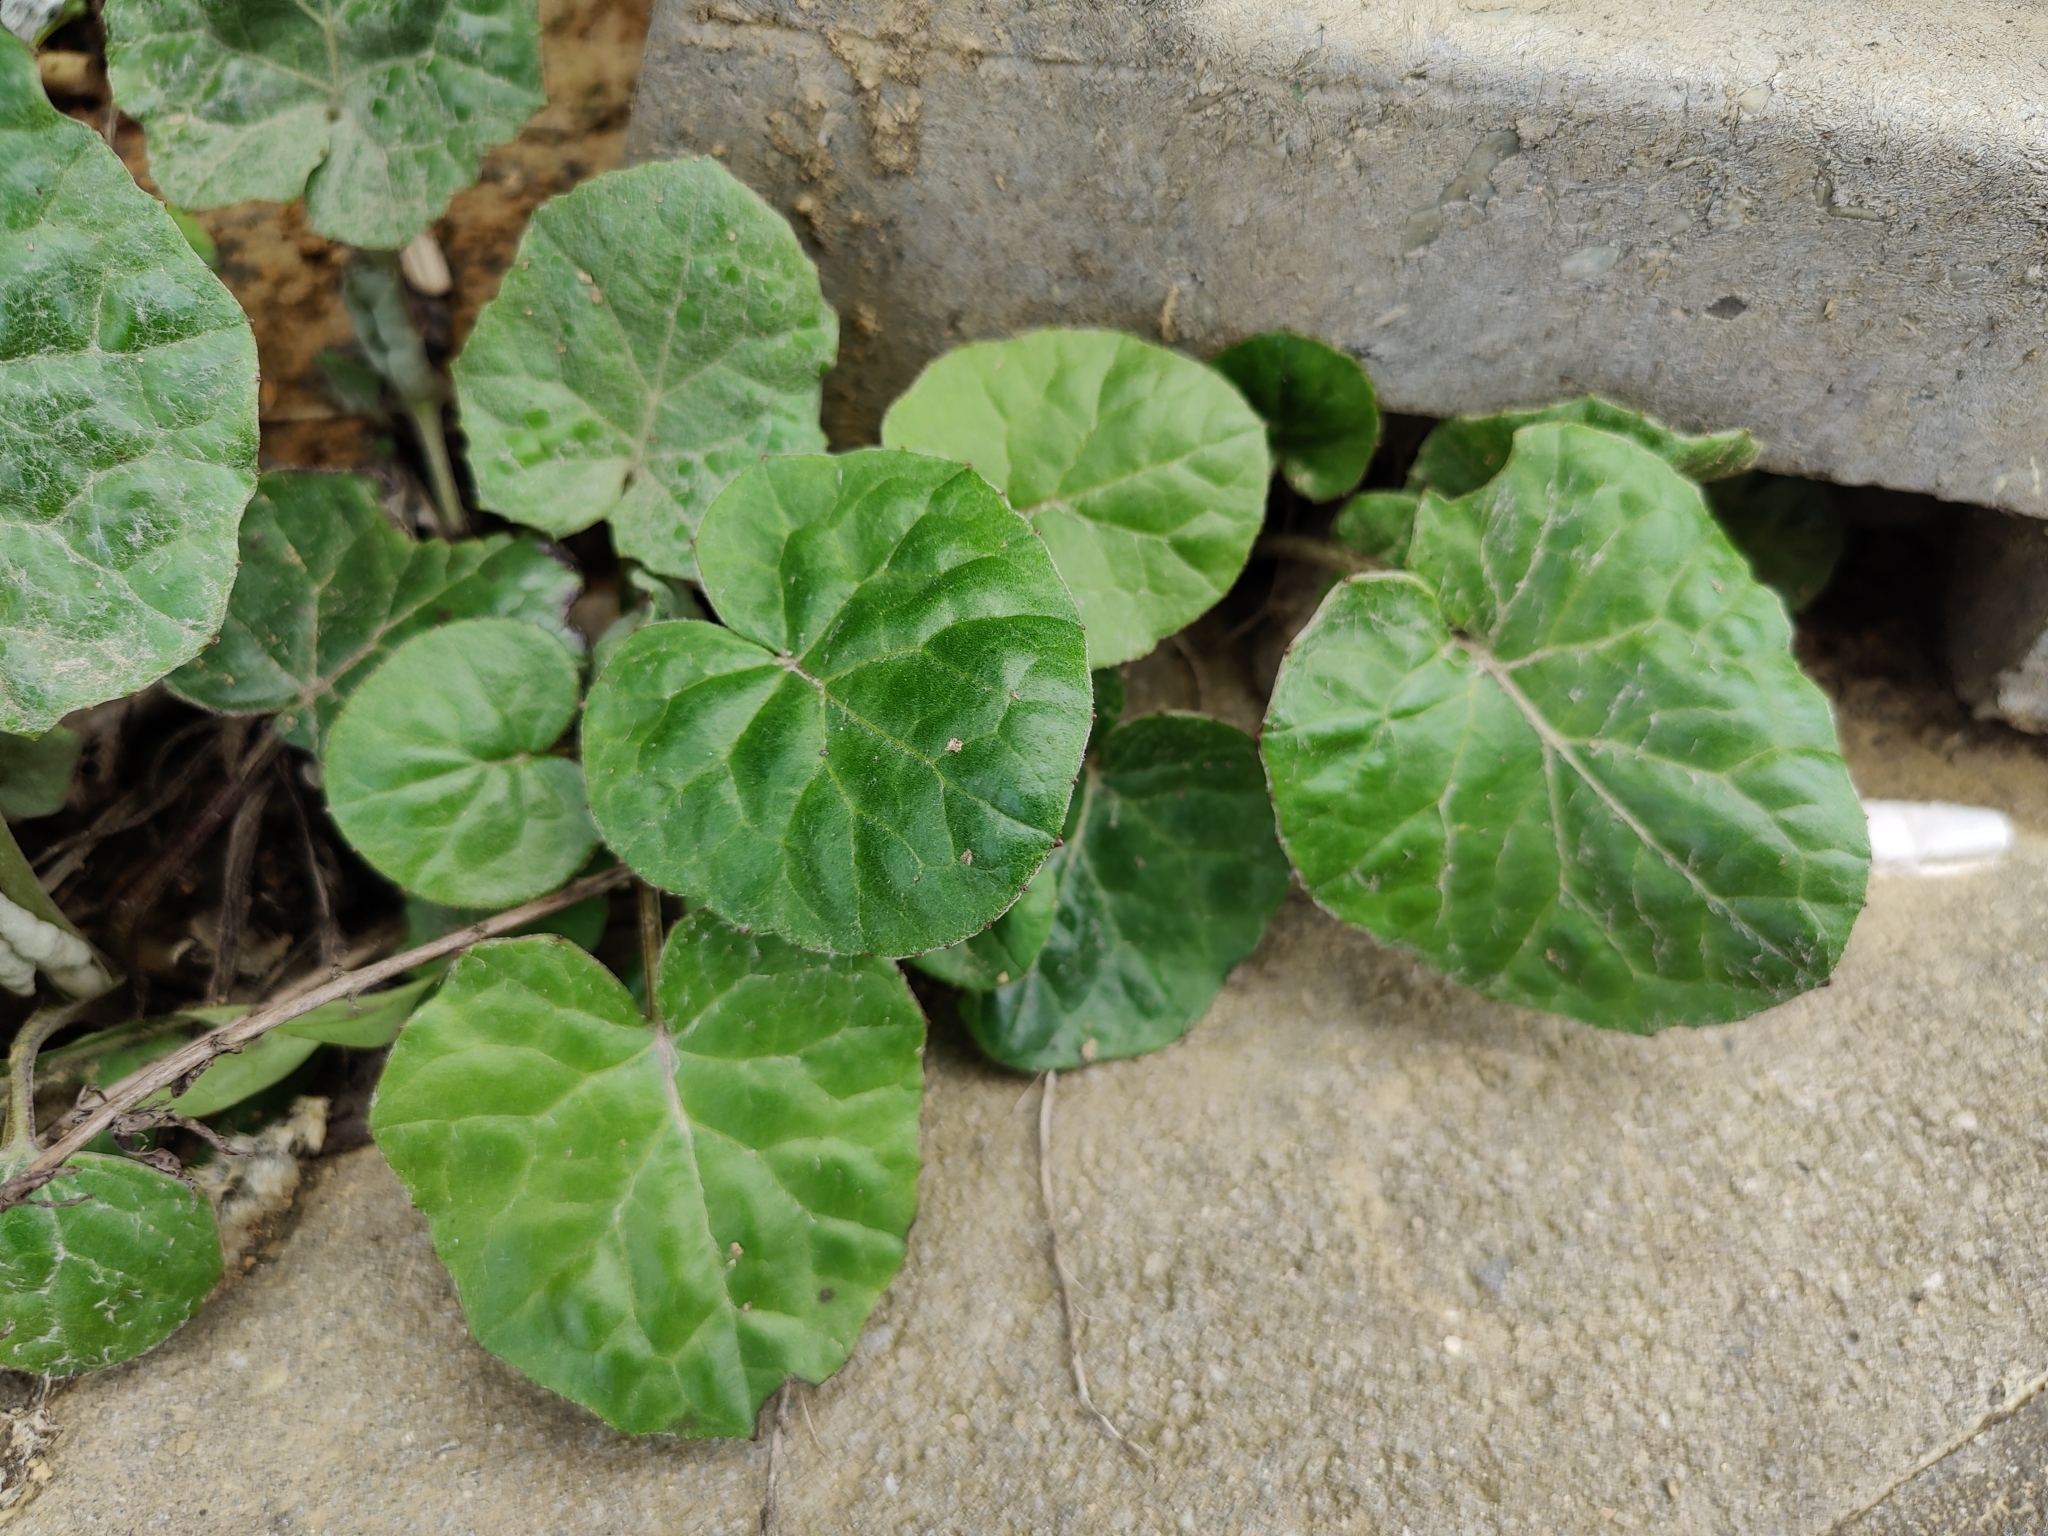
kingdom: Plantae
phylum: Tracheophyta
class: Magnoliopsida
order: Asterales
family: Asteraceae
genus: Tussilago
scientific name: Tussilago farfara
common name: Coltsfoot
